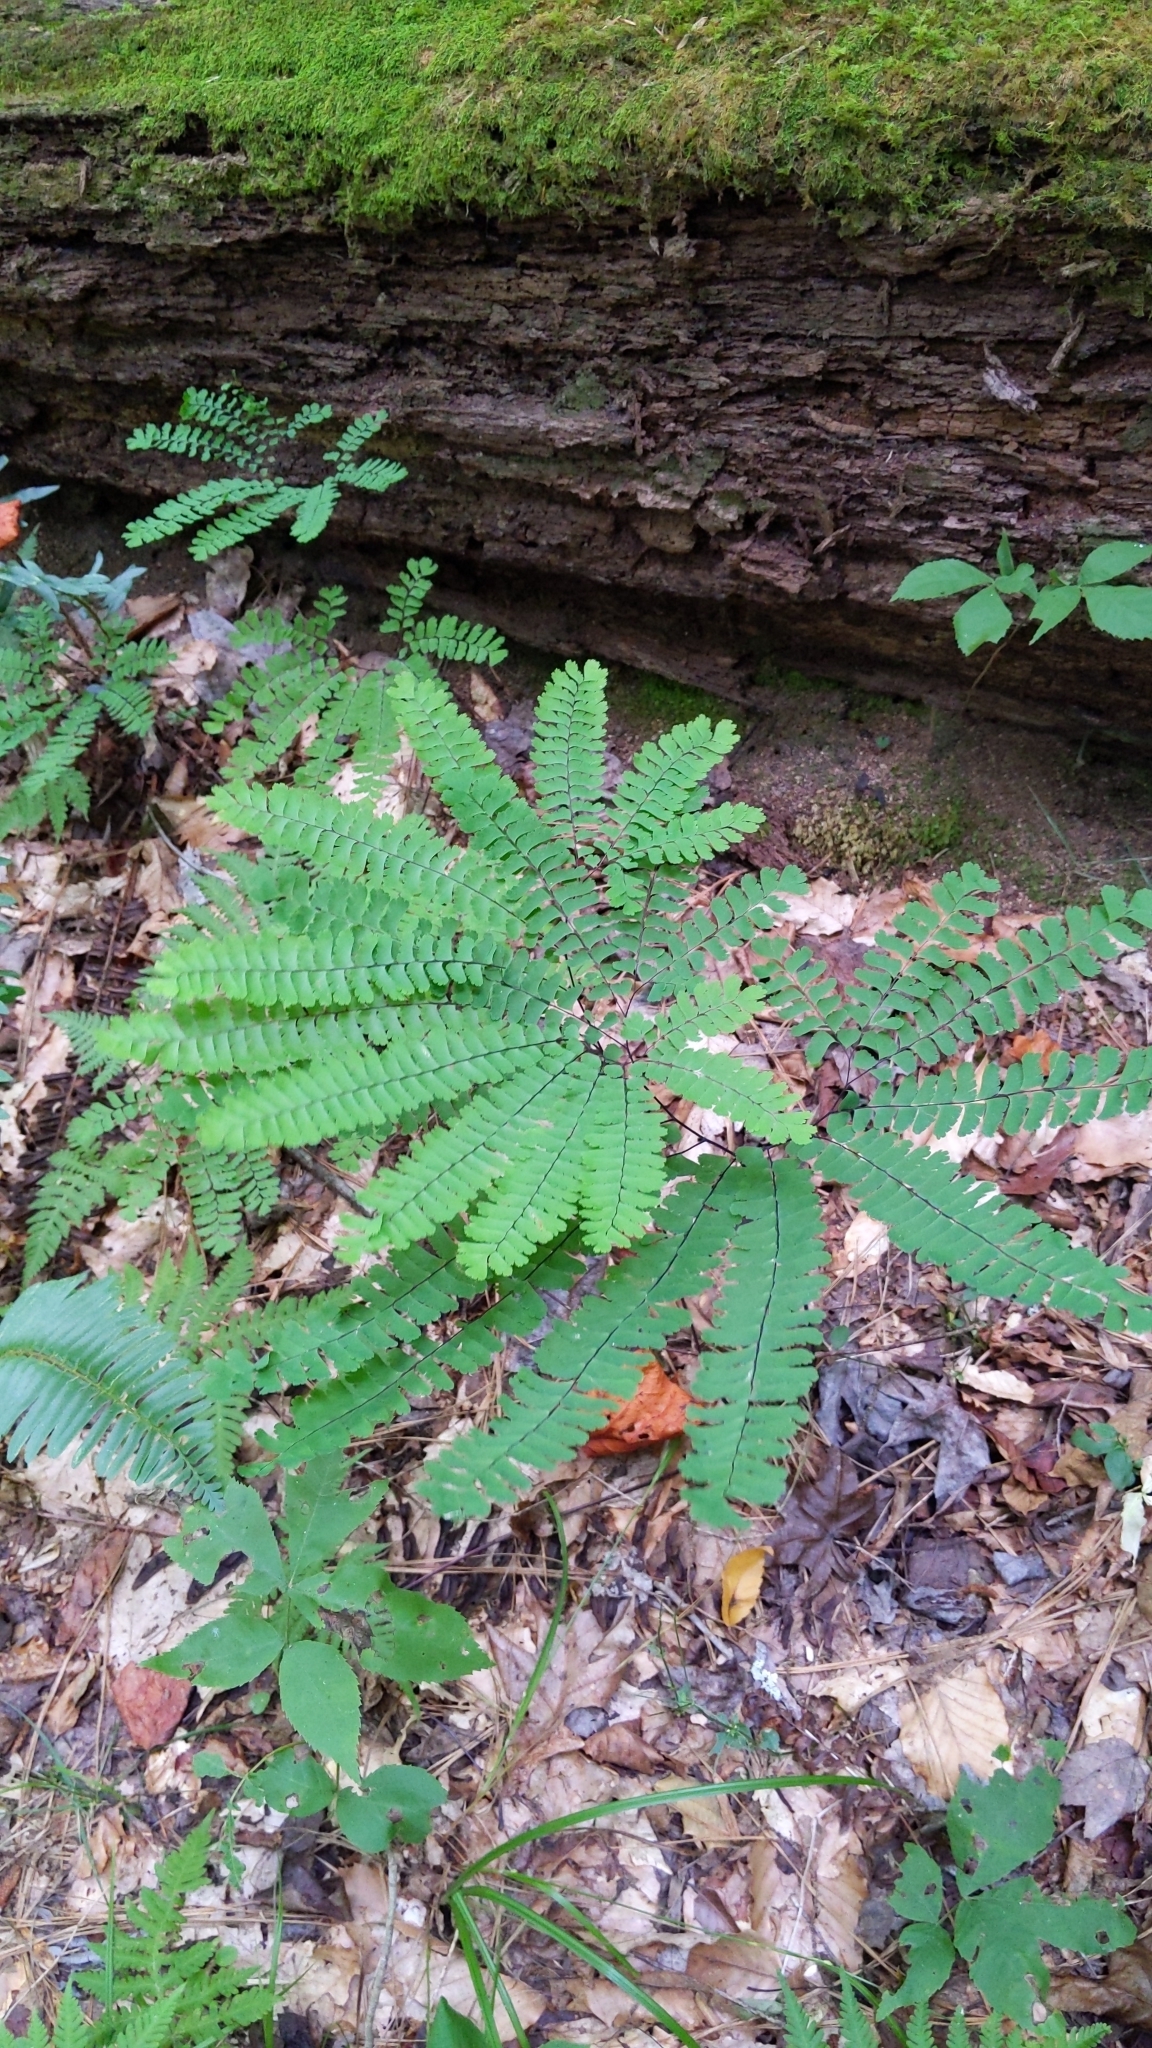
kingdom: Plantae
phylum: Tracheophyta
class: Polypodiopsida
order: Polypodiales
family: Pteridaceae
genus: Adiantum
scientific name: Adiantum pedatum
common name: Five-finger fern
